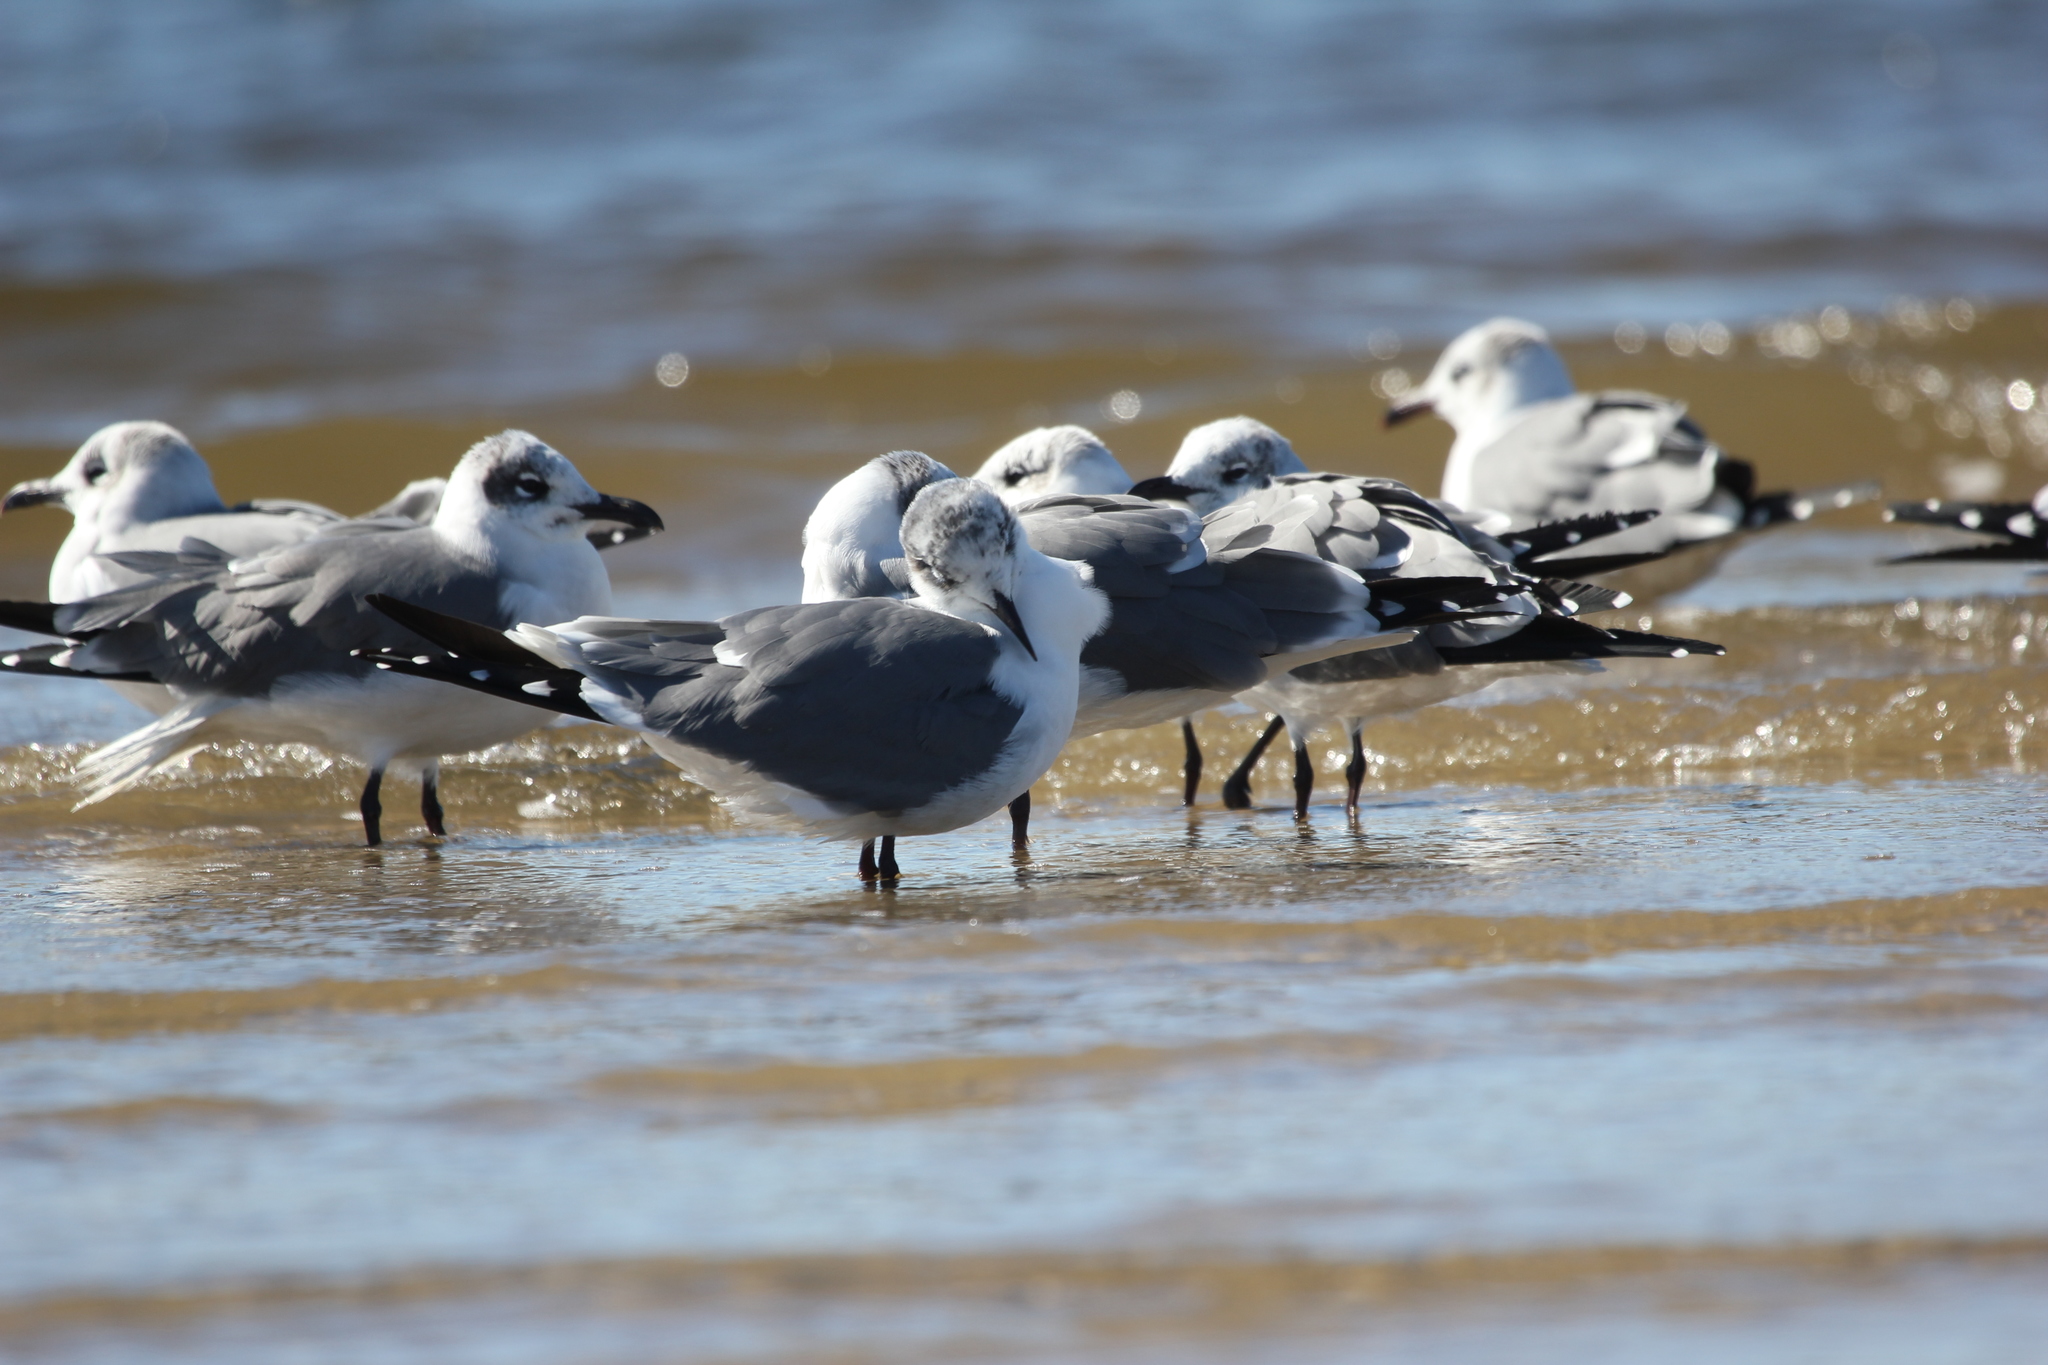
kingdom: Animalia
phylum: Chordata
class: Aves
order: Charadriiformes
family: Laridae
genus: Leucophaeus
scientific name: Leucophaeus atricilla
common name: Laughing gull
